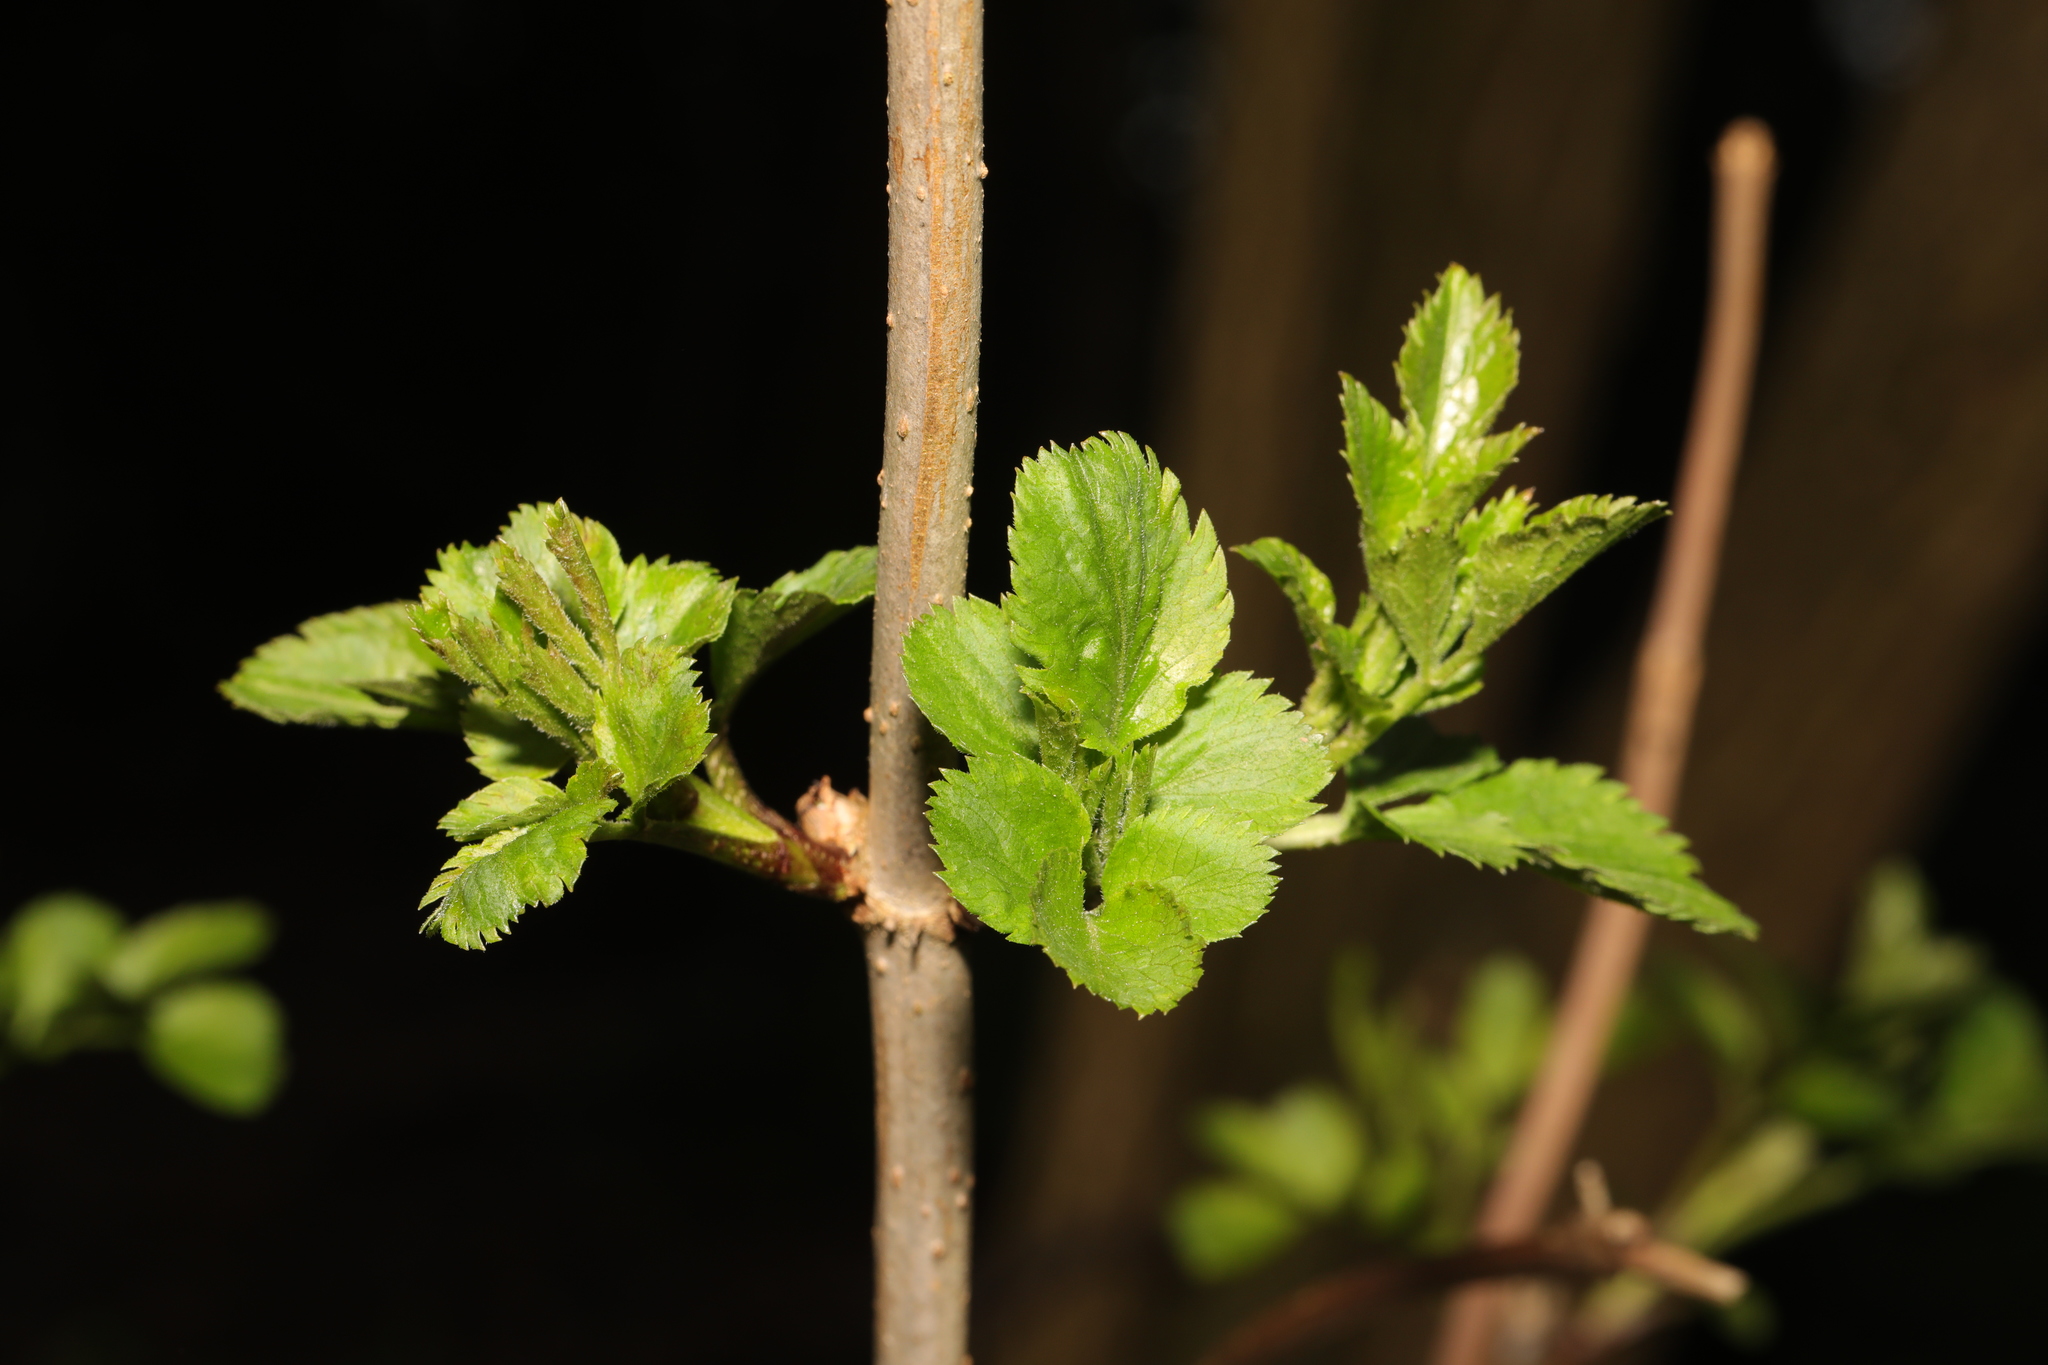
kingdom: Plantae
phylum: Tracheophyta
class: Magnoliopsida
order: Dipsacales
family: Viburnaceae
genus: Sambucus
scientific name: Sambucus nigra
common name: Elder
